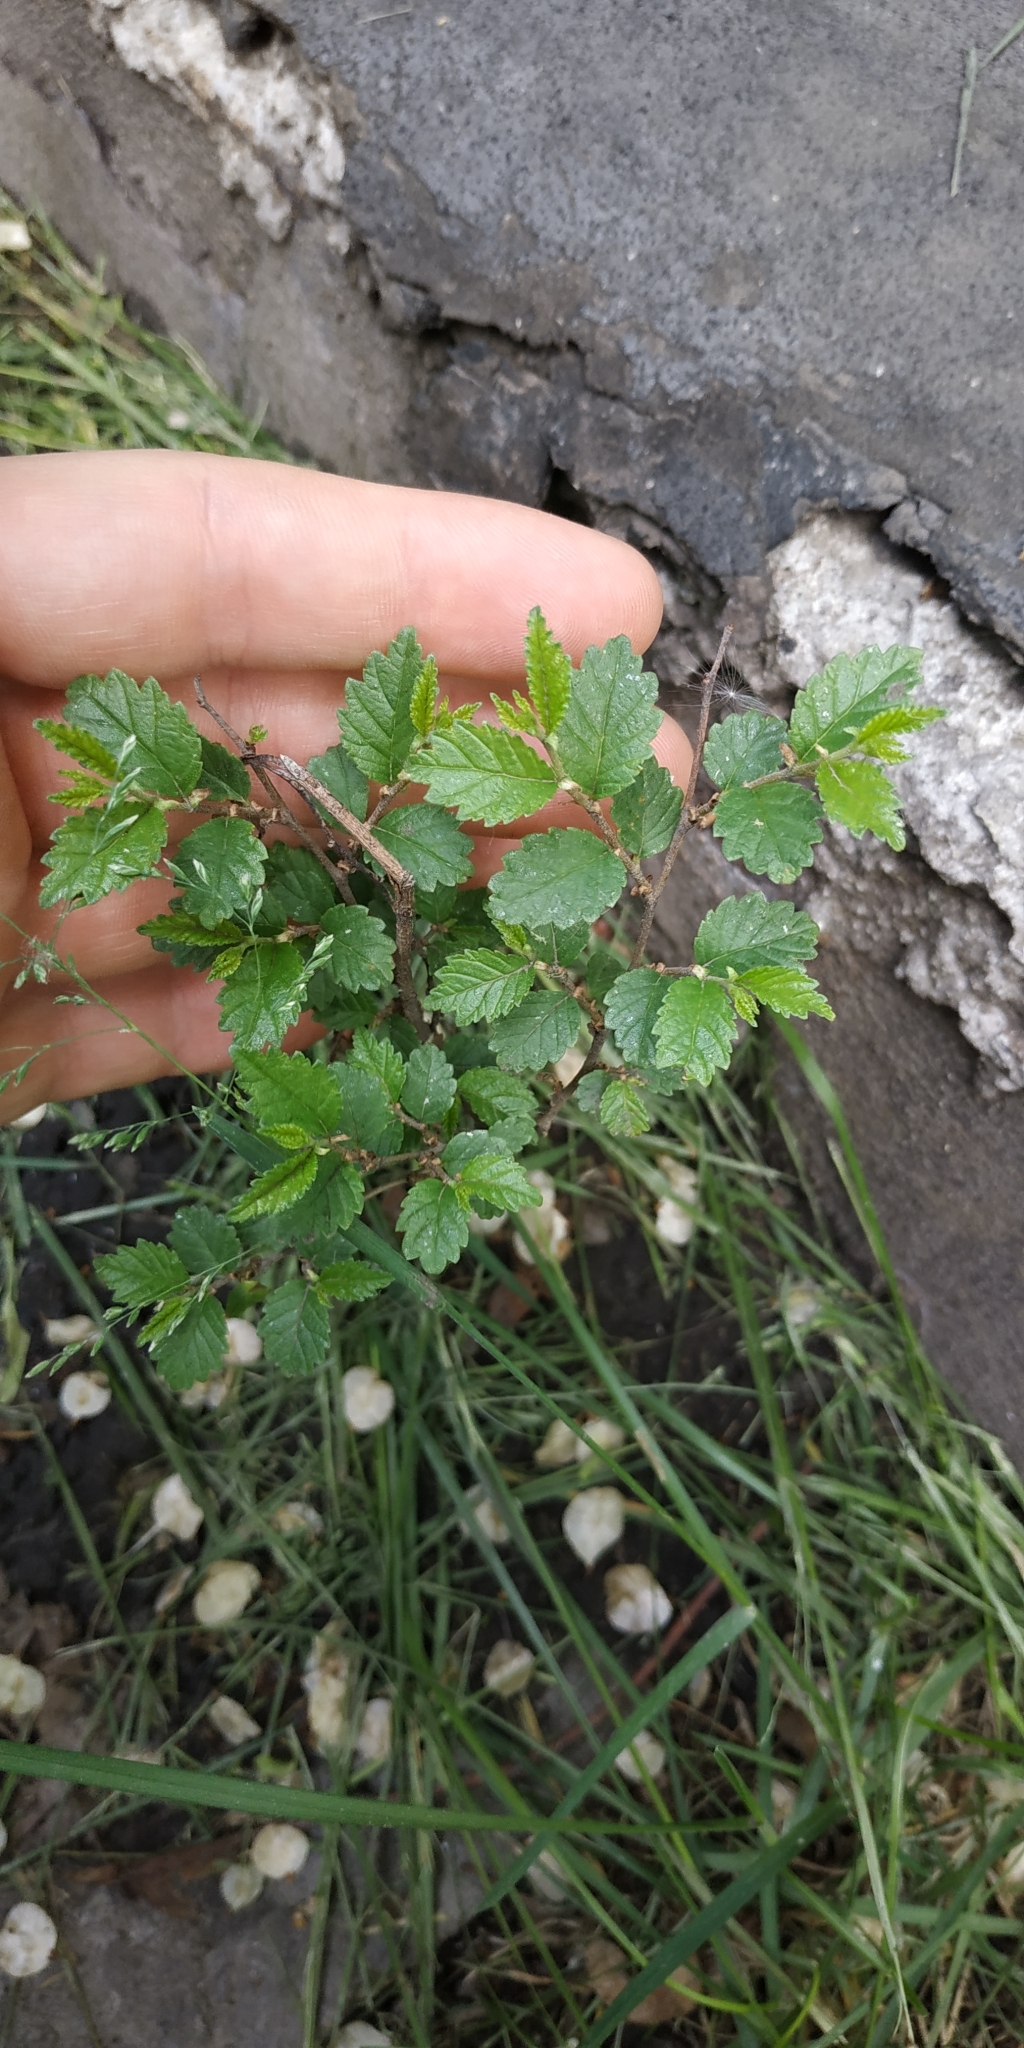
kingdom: Plantae
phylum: Tracheophyta
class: Magnoliopsida
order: Rosales
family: Ulmaceae
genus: Ulmus
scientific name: Ulmus pumila
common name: Siberian elm
